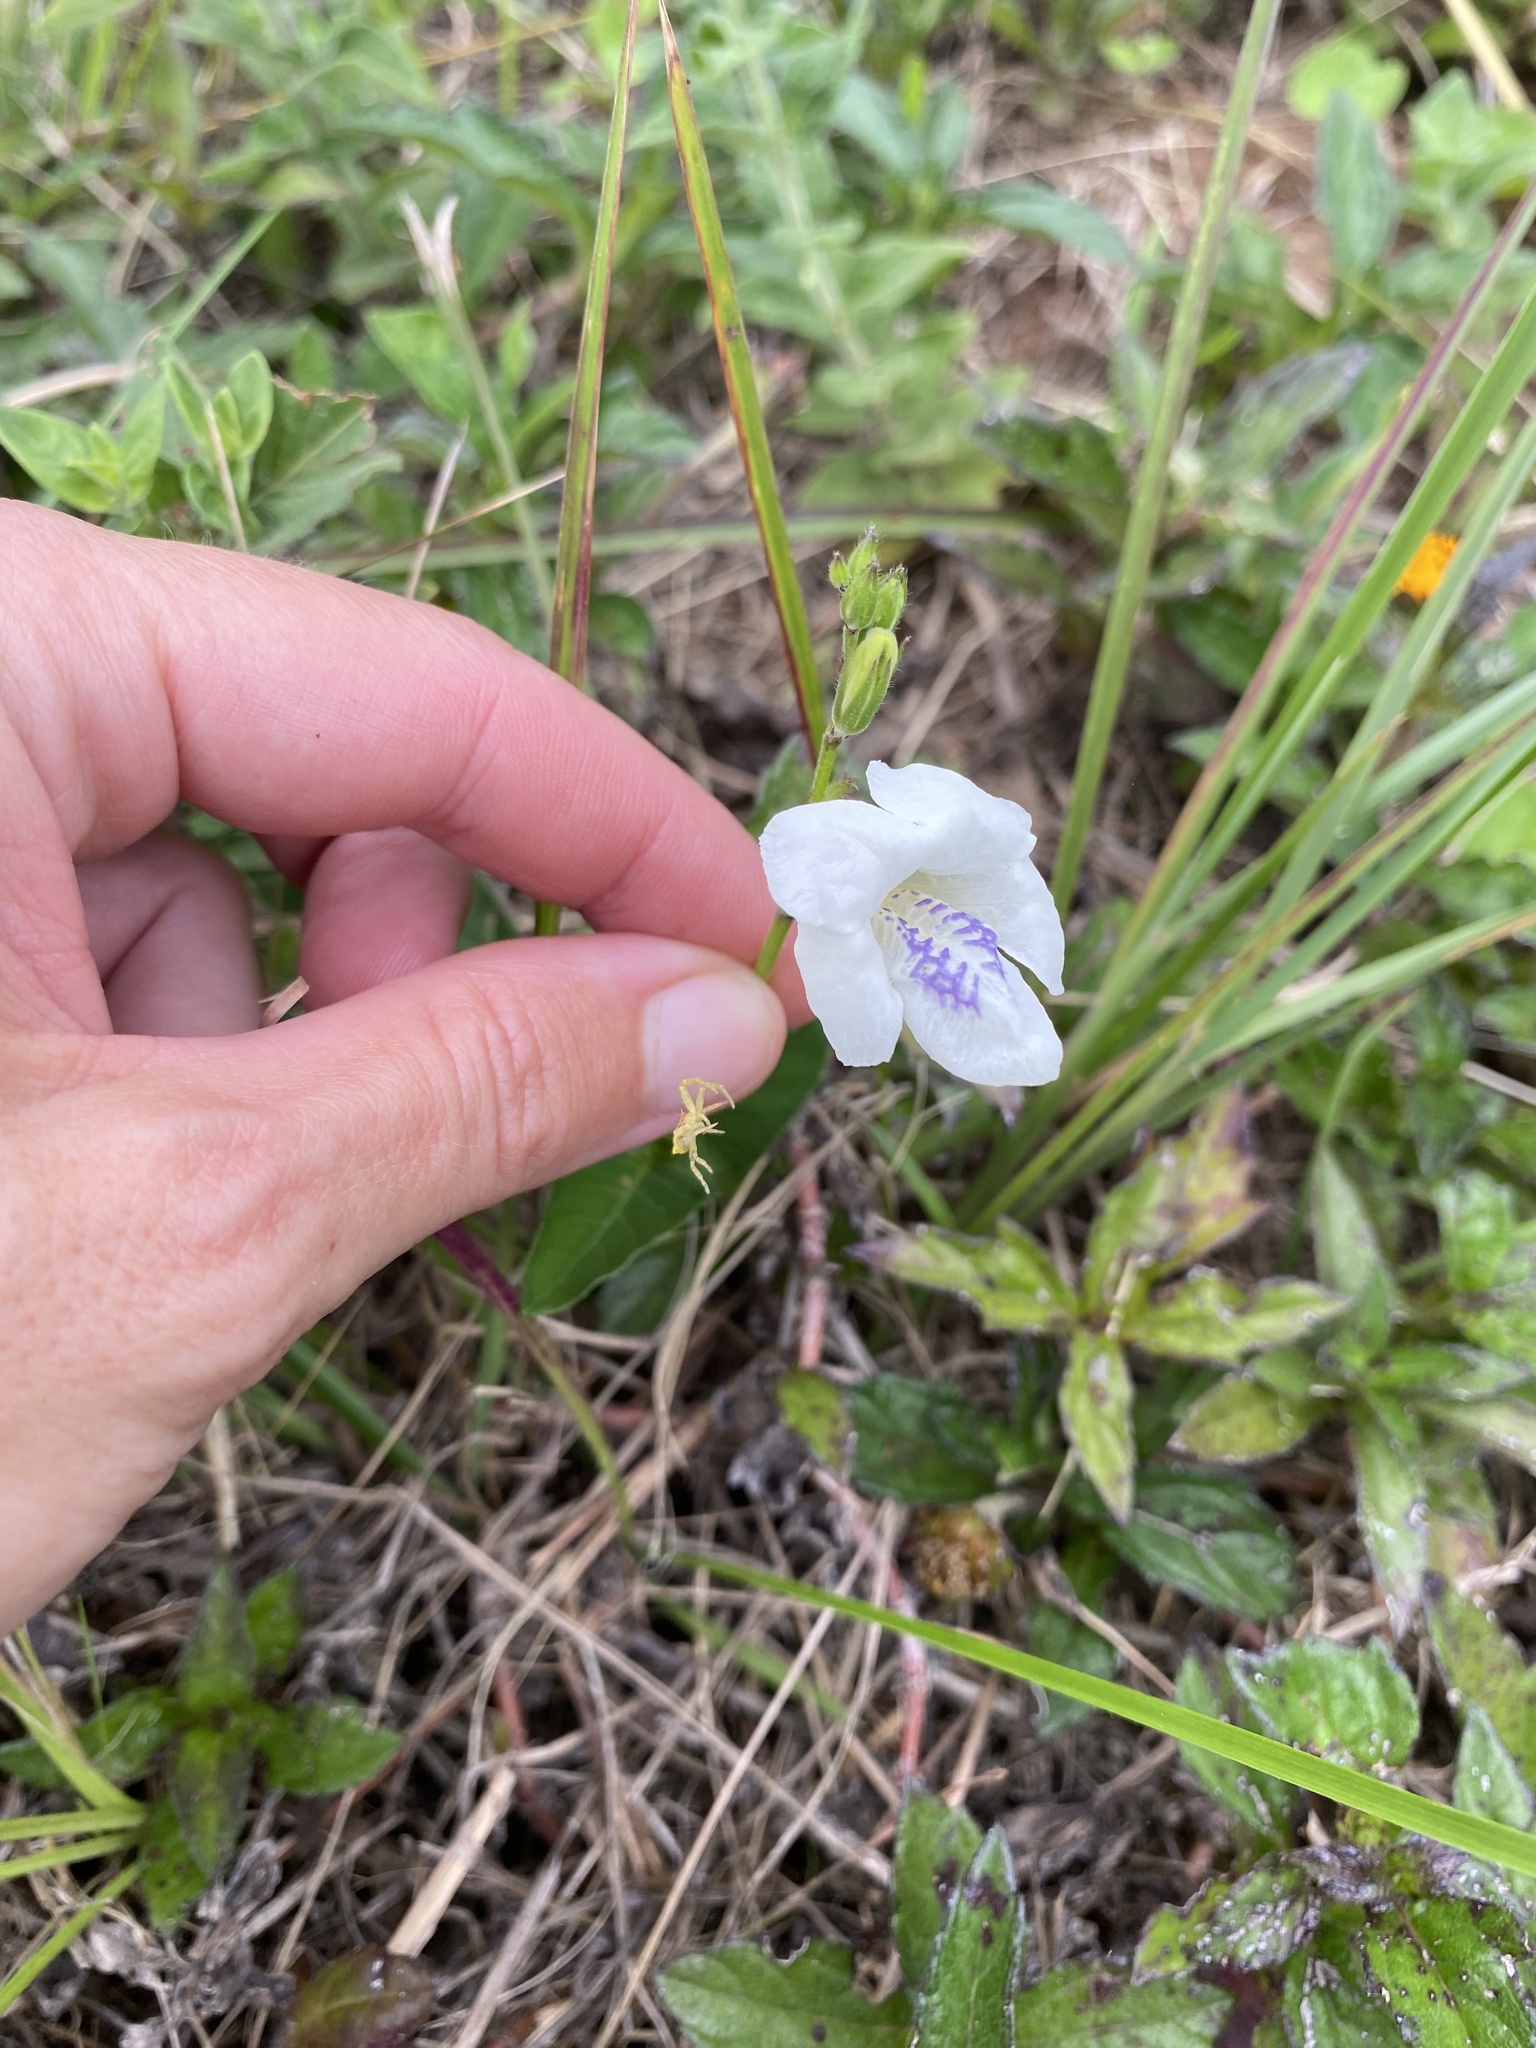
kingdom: Plantae
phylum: Tracheophyta
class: Magnoliopsida
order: Lamiales
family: Acanthaceae
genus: Asystasia
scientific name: Asystasia intrusa
